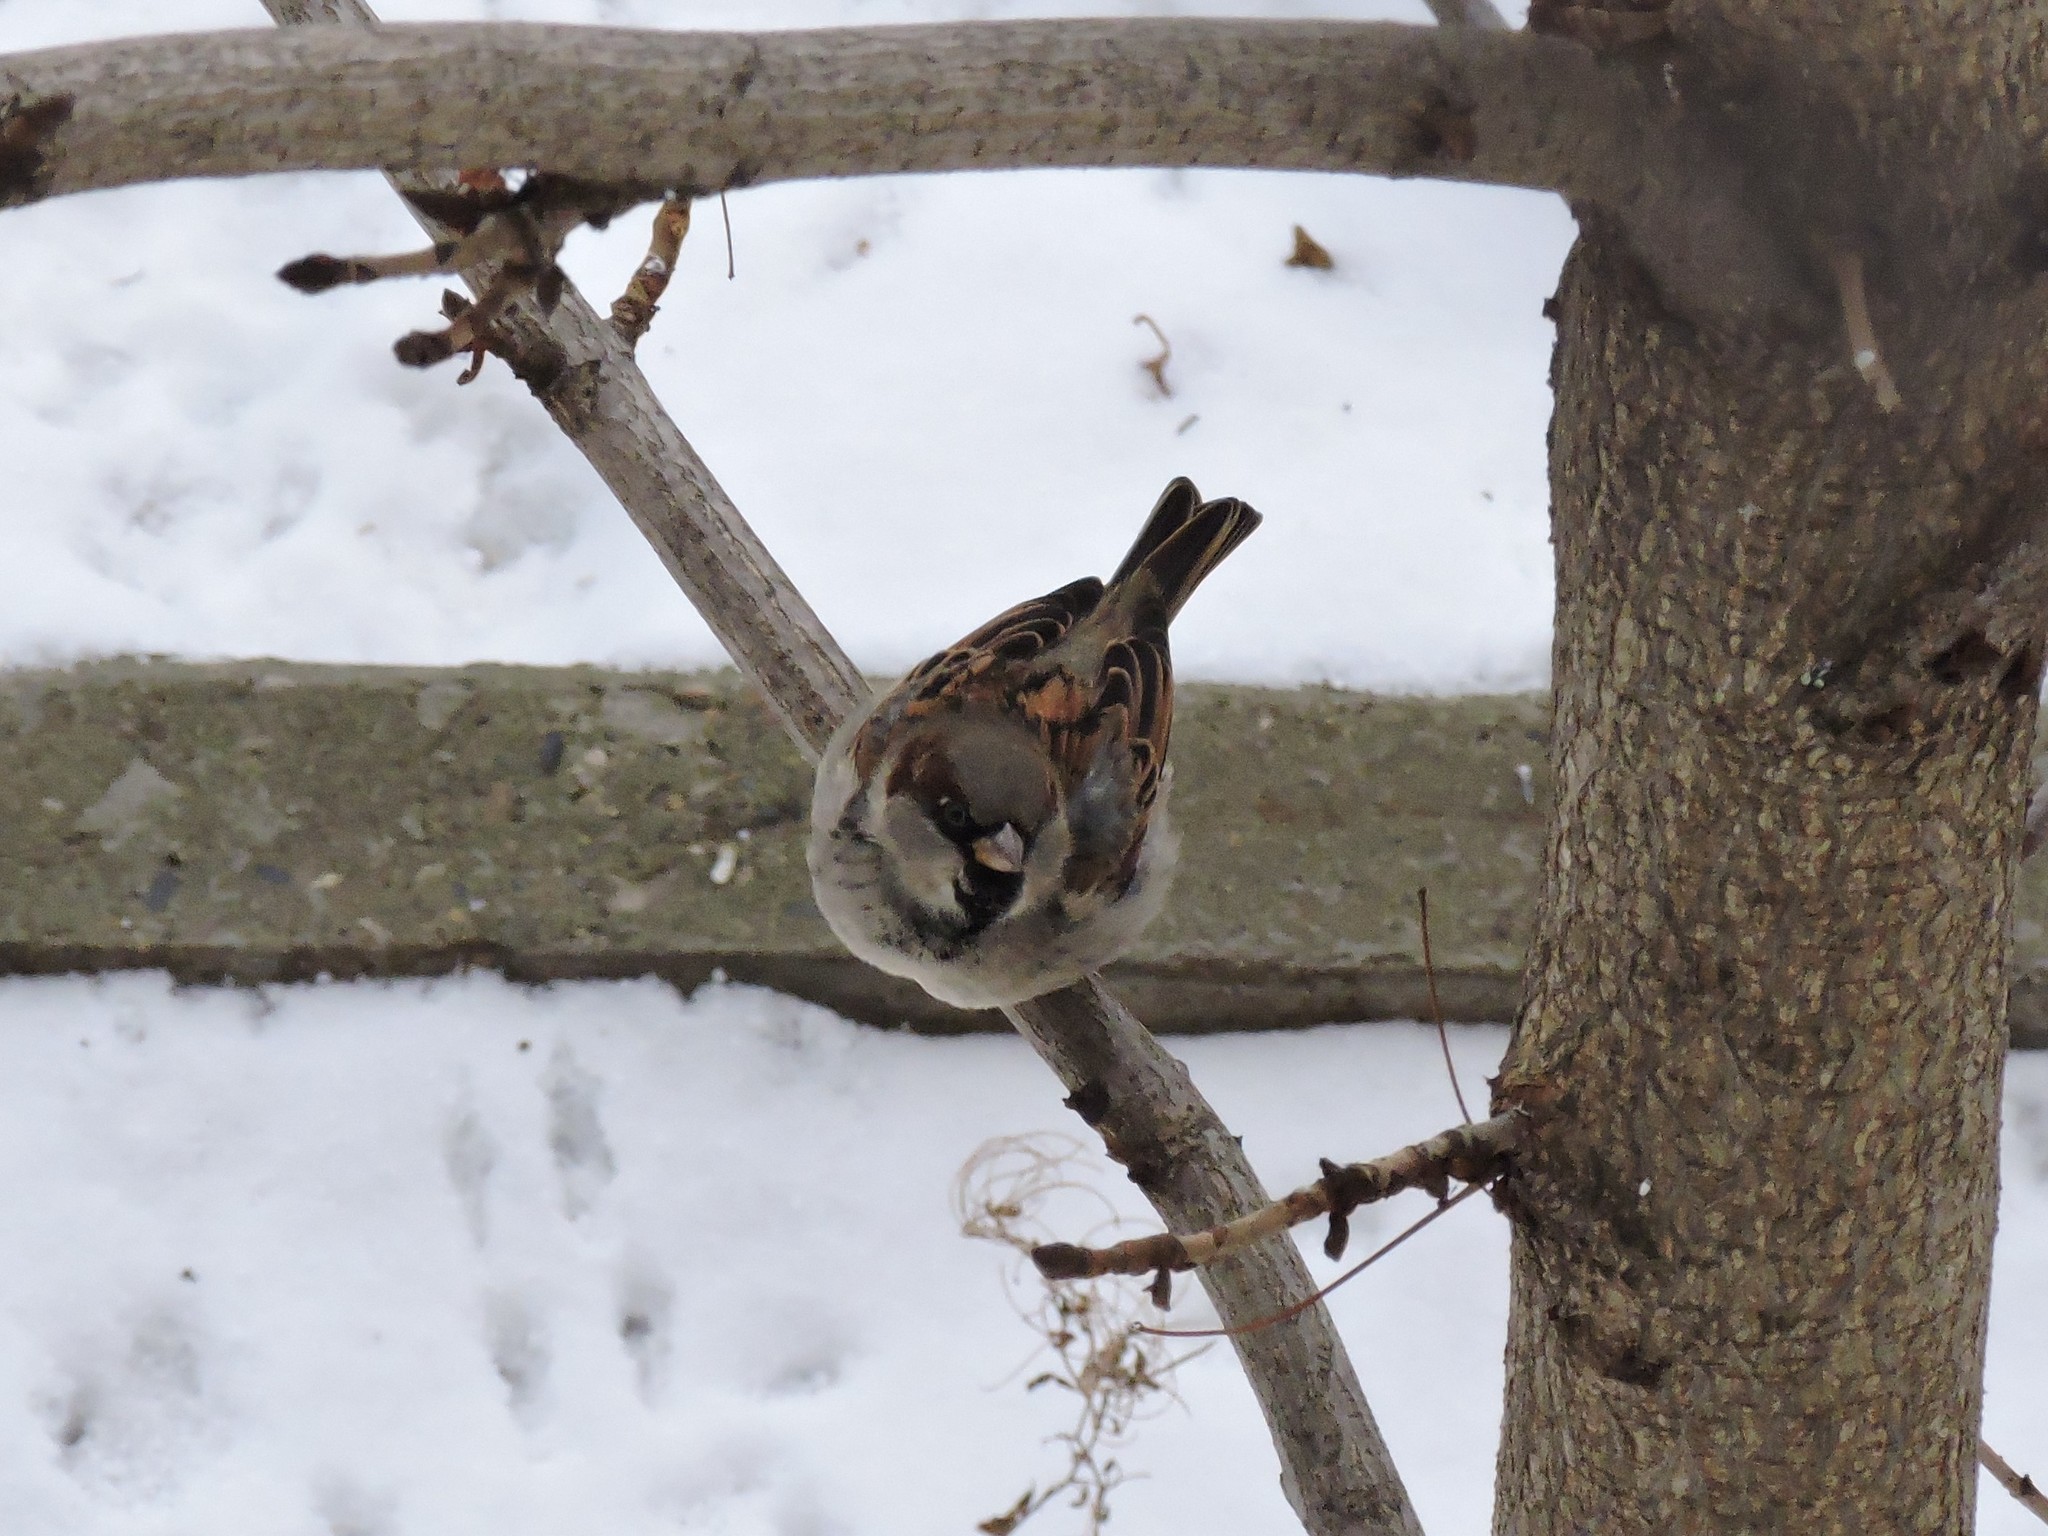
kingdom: Animalia
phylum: Chordata
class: Aves
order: Passeriformes
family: Passeridae
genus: Passer
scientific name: Passer domesticus
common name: House sparrow
